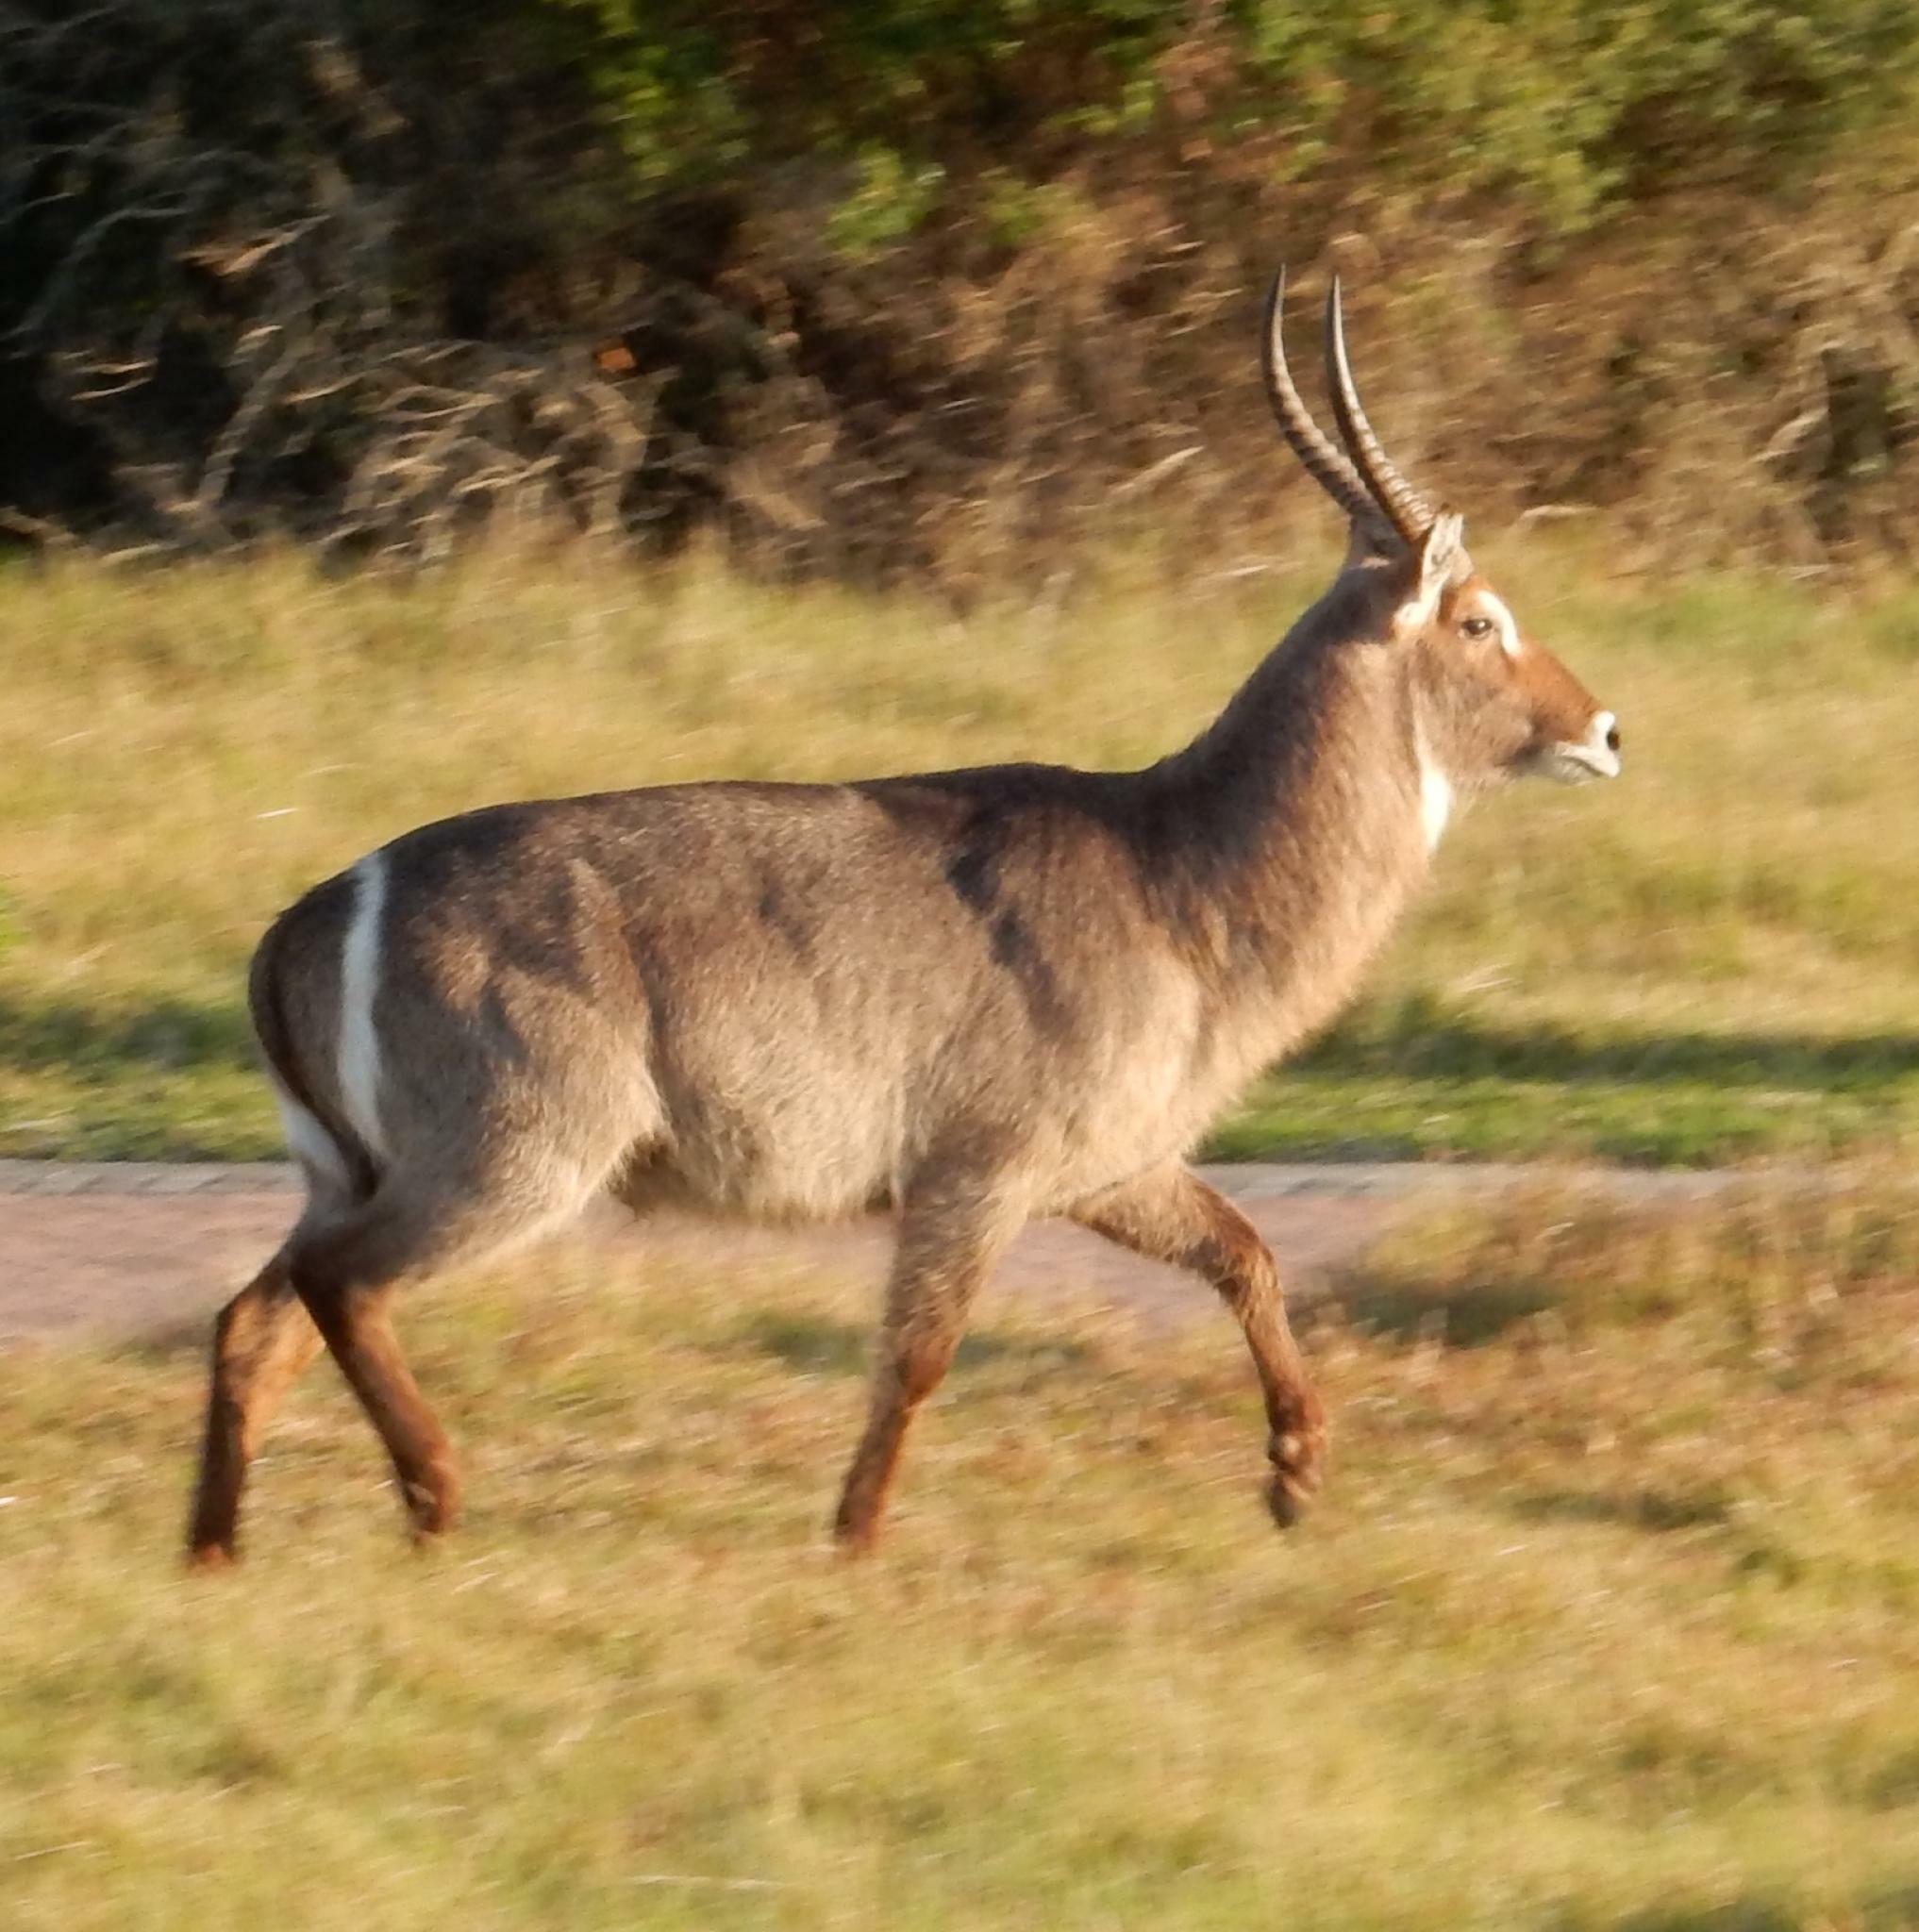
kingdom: Animalia
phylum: Chordata
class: Mammalia
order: Artiodactyla
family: Bovidae
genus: Kobus
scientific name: Kobus ellipsiprymnus
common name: Waterbuck
